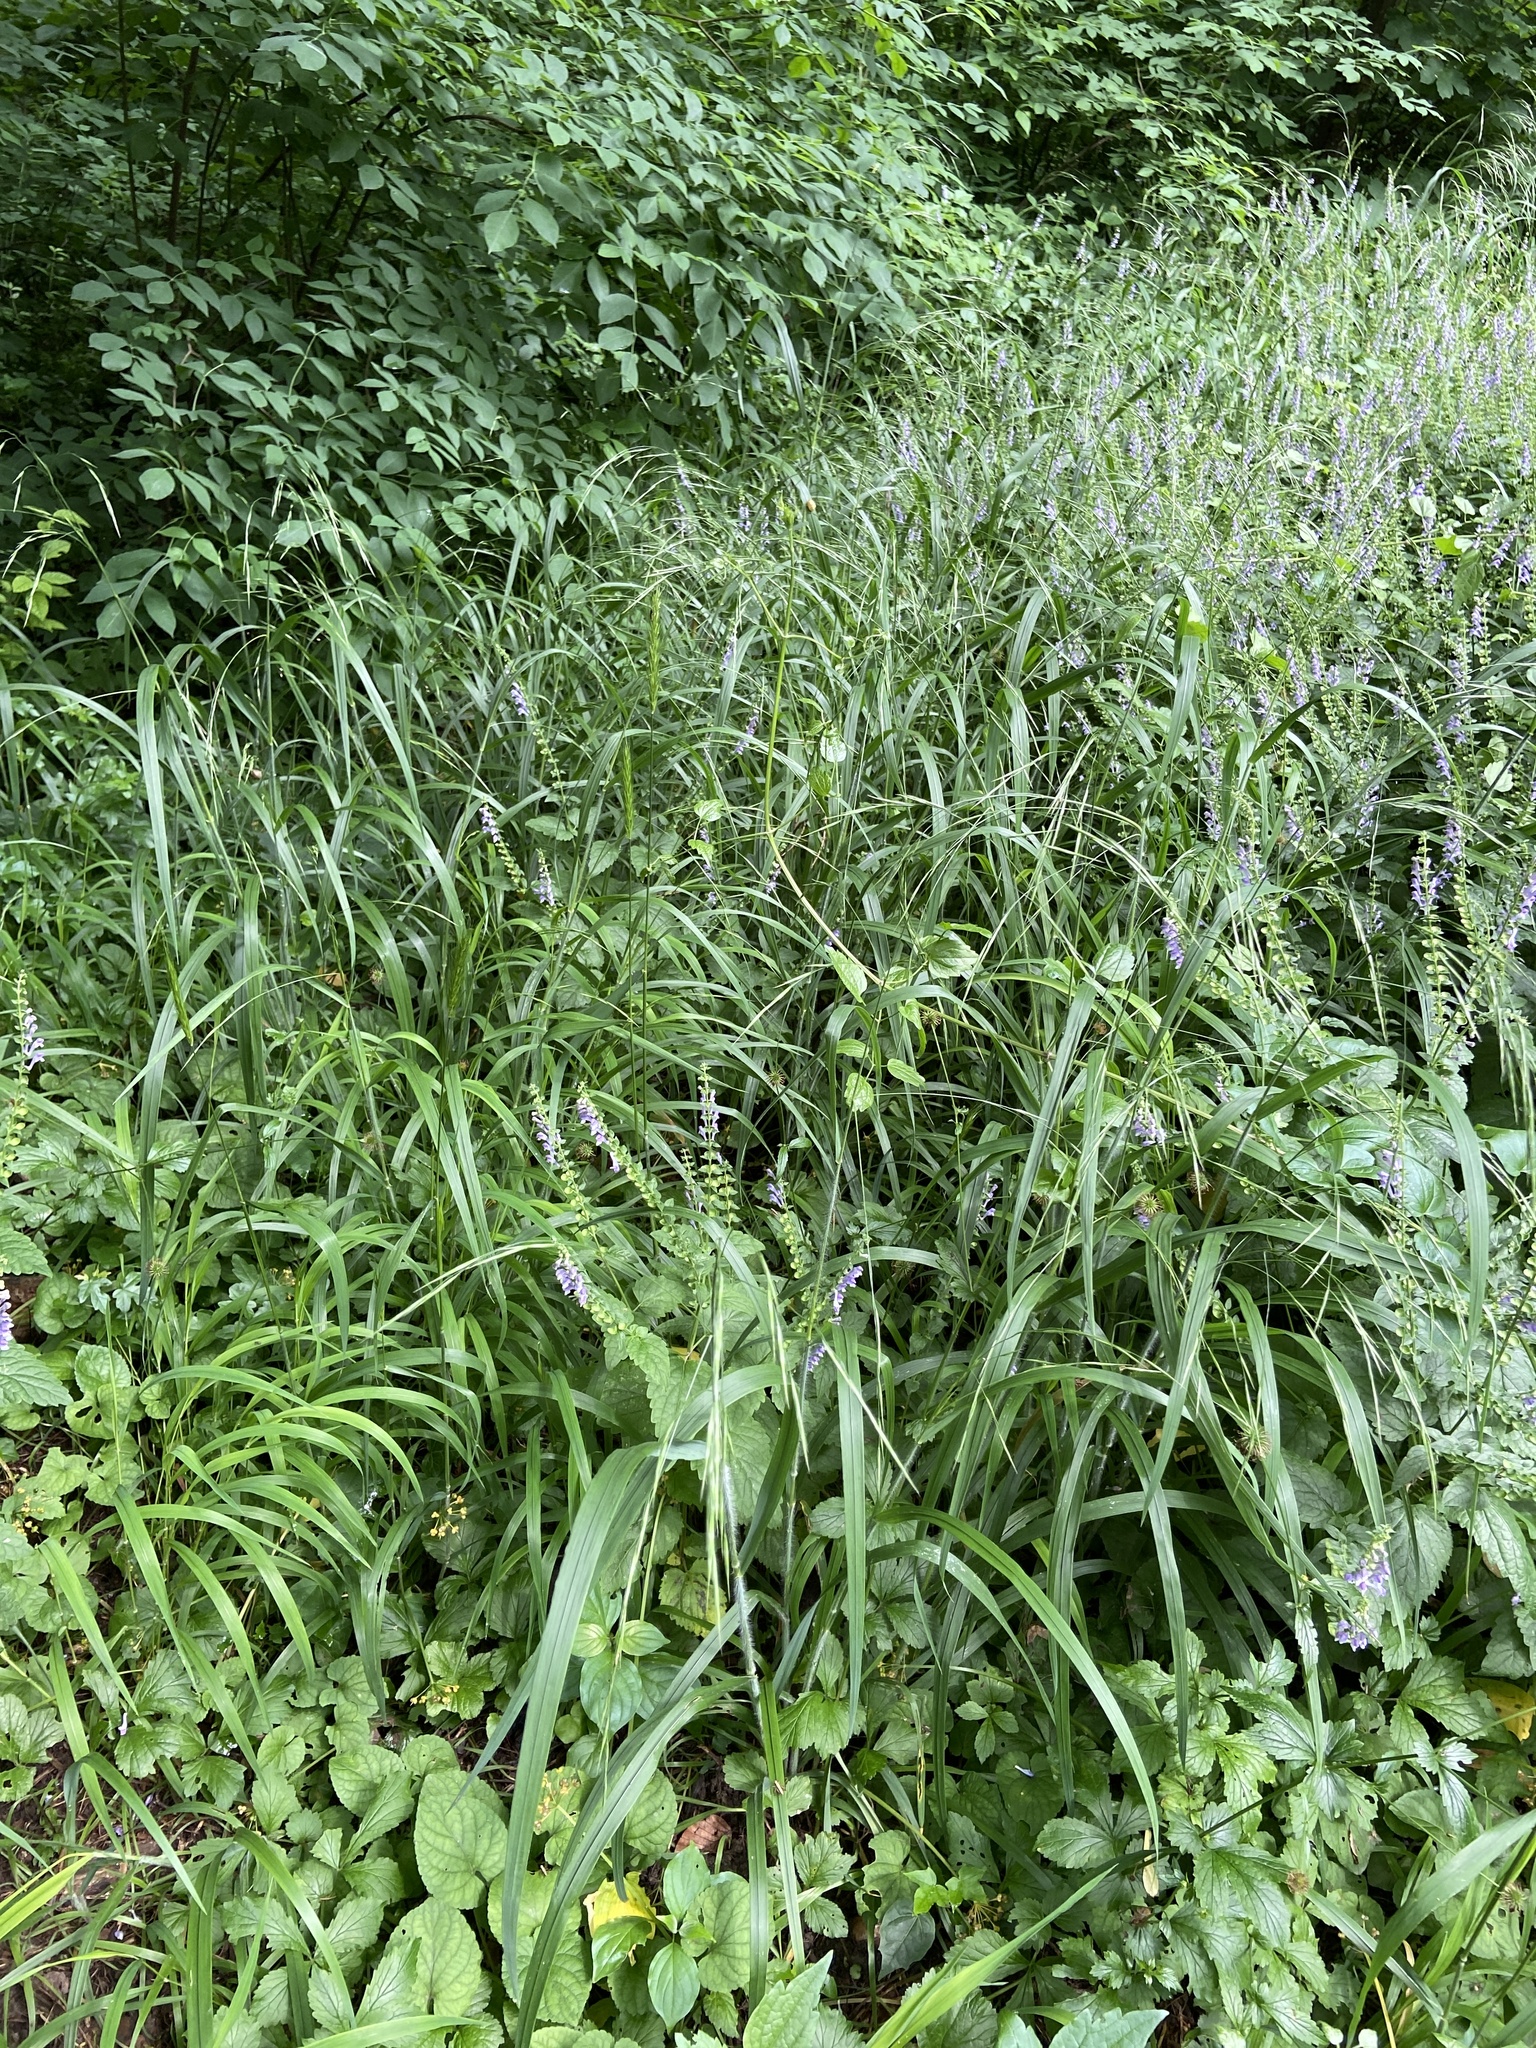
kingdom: Plantae
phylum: Tracheophyta
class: Liliopsida
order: Poales
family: Poaceae
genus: Bromus
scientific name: Bromus ramosus
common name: Hairy brome
